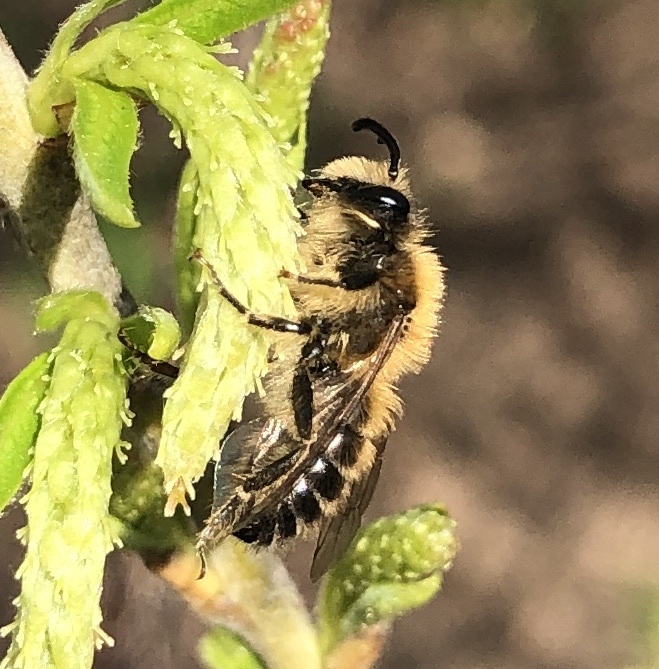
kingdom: Animalia
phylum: Arthropoda
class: Insecta
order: Hymenoptera
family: Colletidae
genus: Colletes
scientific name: Colletes cunicularius
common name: Early colletes
